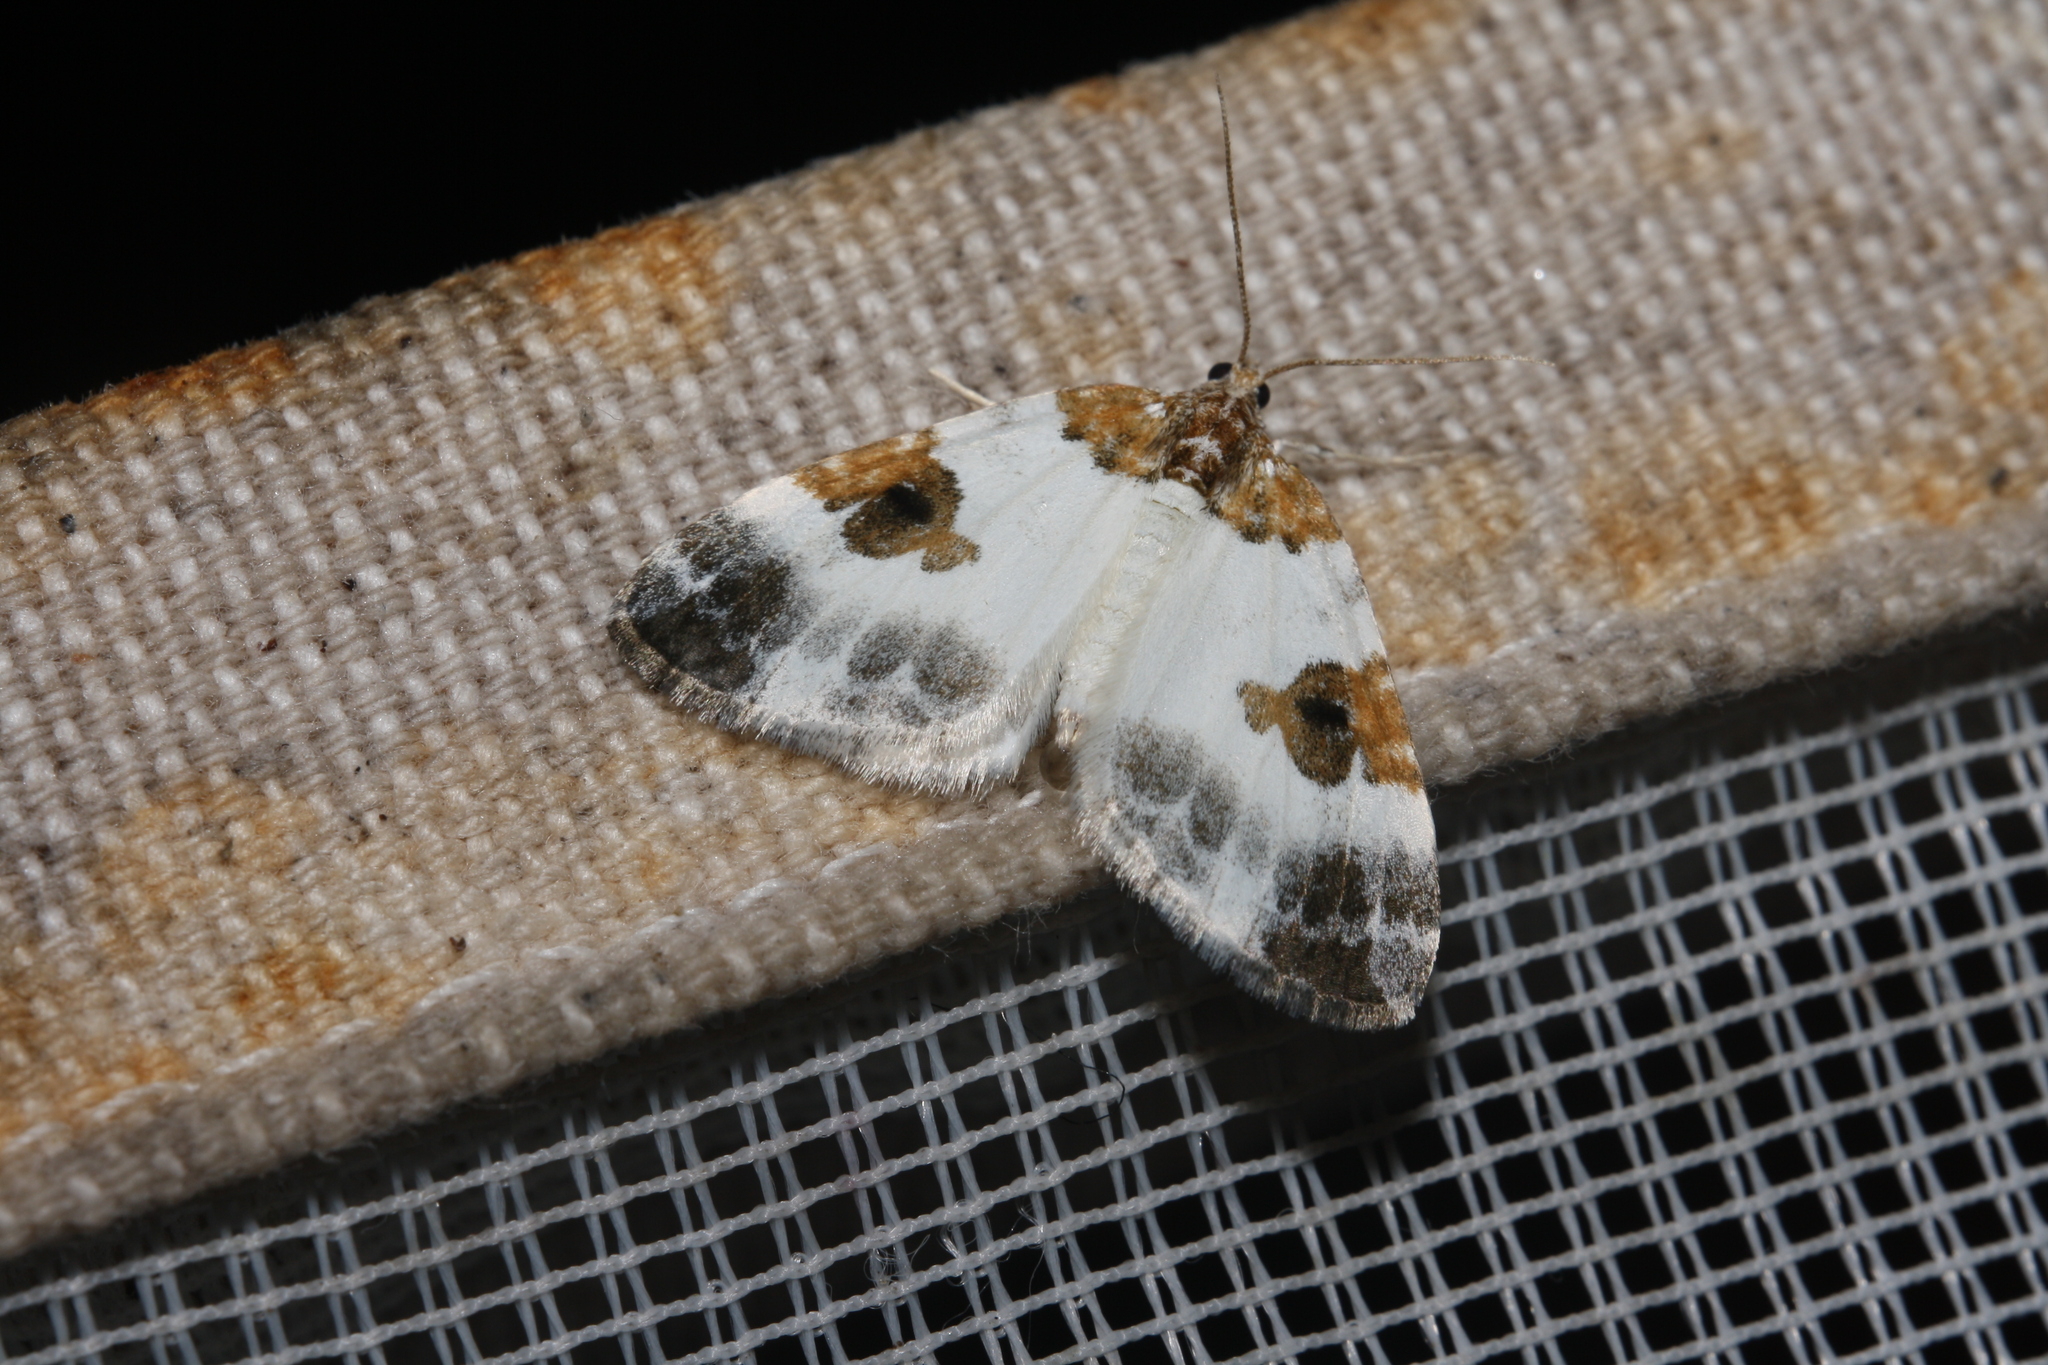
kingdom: Animalia
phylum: Arthropoda
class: Insecta
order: Lepidoptera
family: Geometridae
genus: Plemyria
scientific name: Plemyria rubiginata
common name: Blue-bordered carpet
